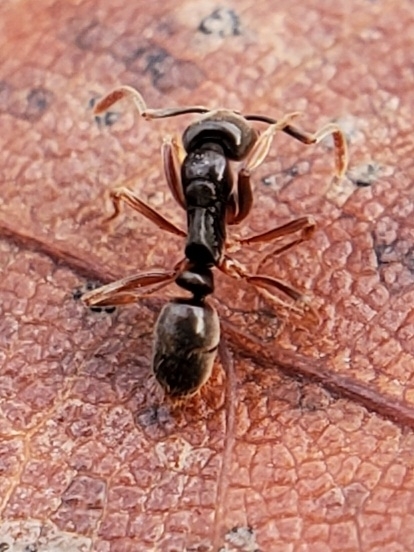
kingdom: Animalia
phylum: Arthropoda
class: Insecta
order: Hymenoptera
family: Formicidae
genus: Pachycondyla
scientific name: Pachycondyla chinensis
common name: Asian needle ant
